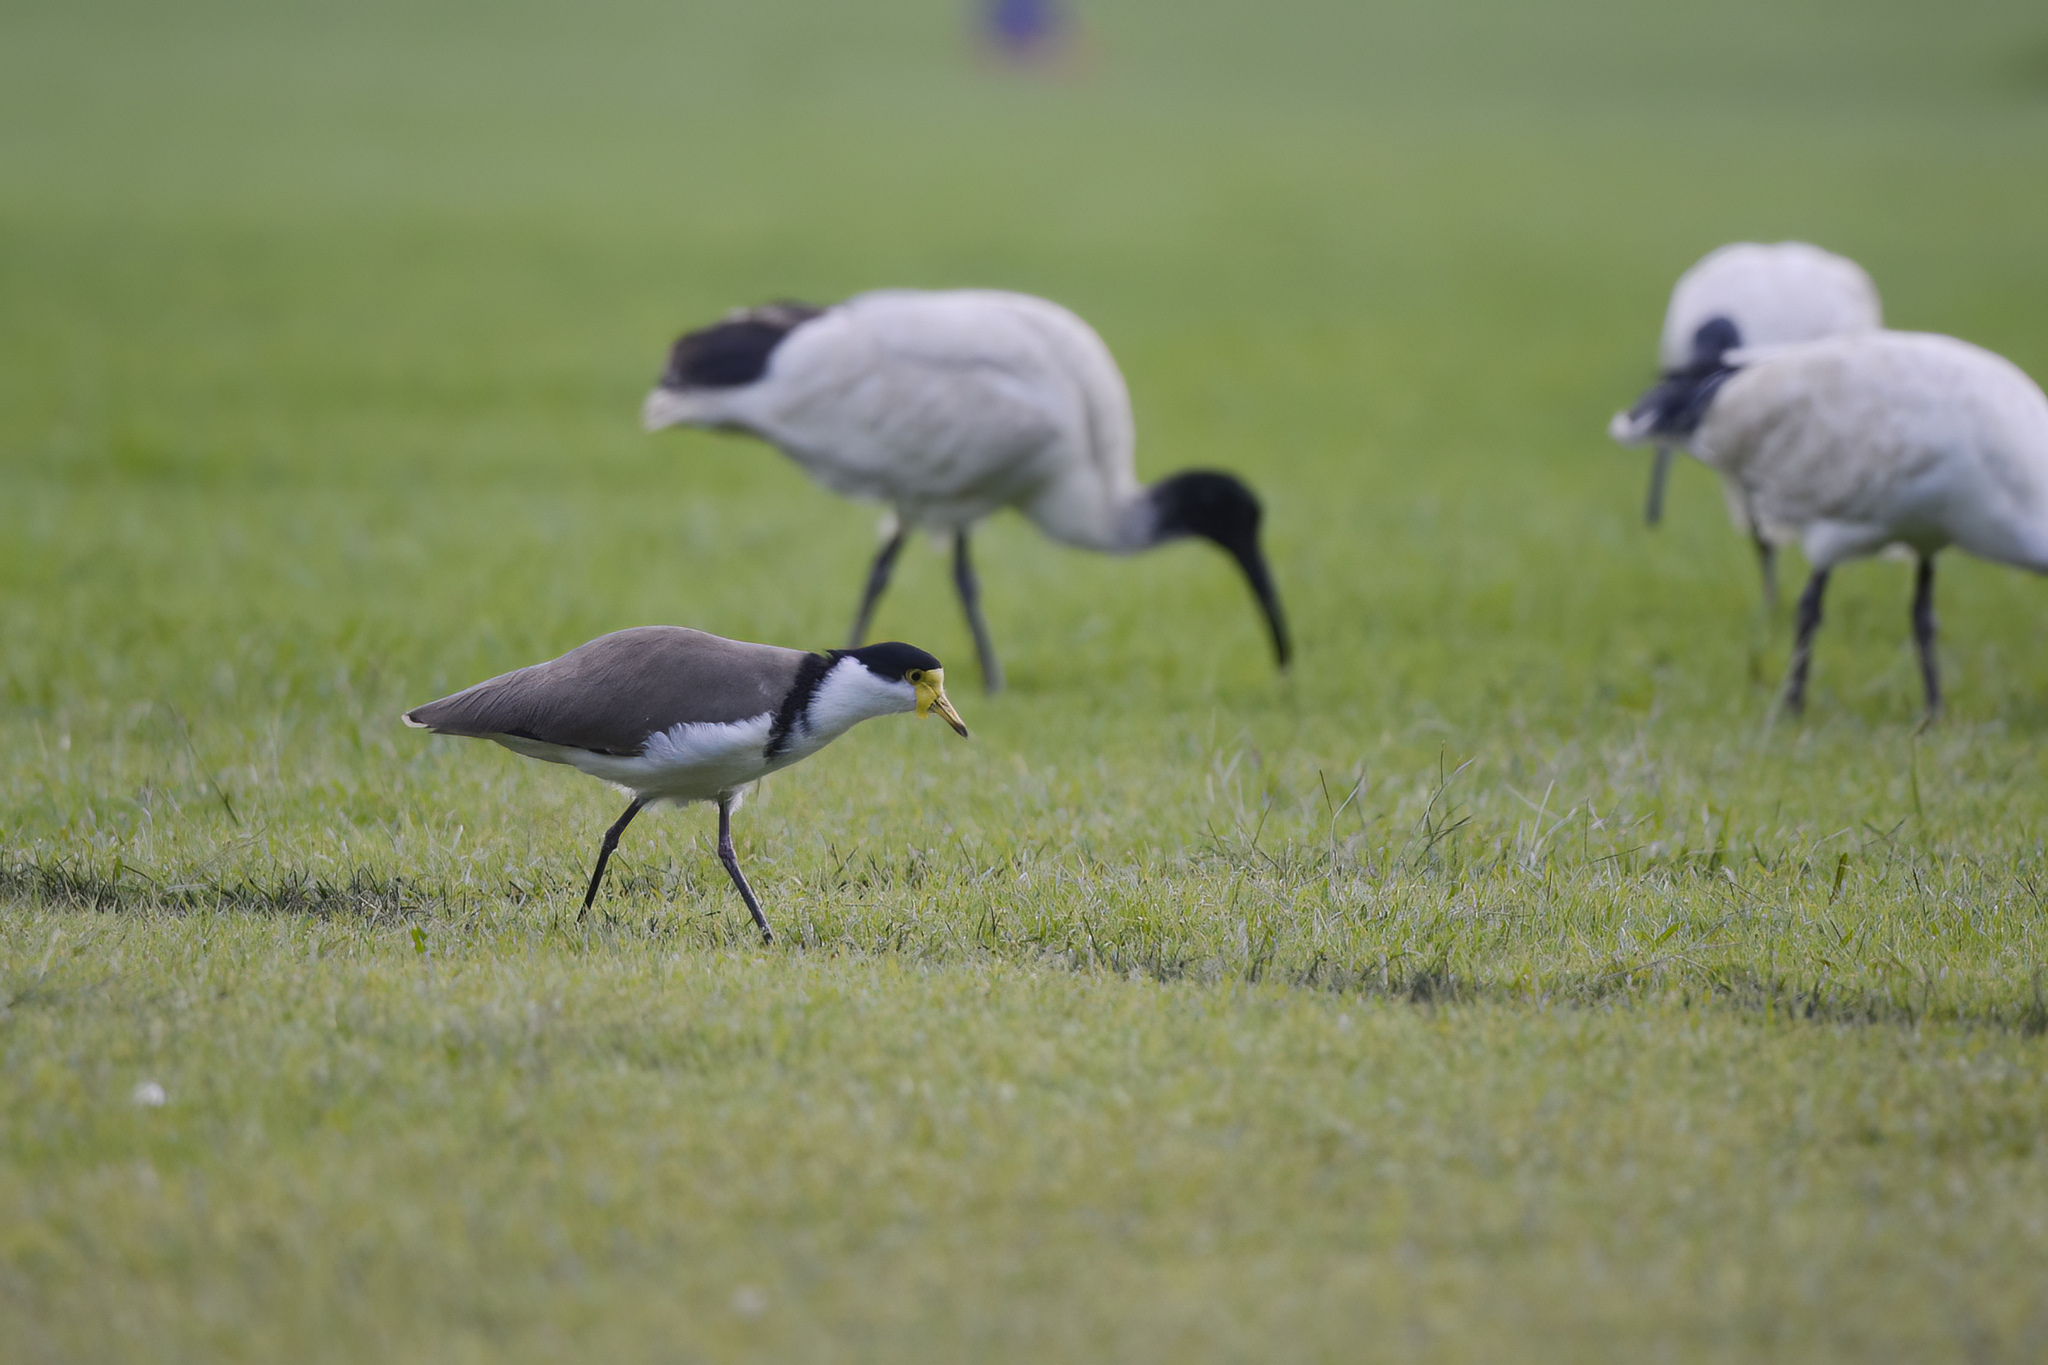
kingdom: Animalia
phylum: Chordata
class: Aves
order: Charadriiformes
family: Charadriidae
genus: Vanellus
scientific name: Vanellus miles
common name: Masked lapwing
